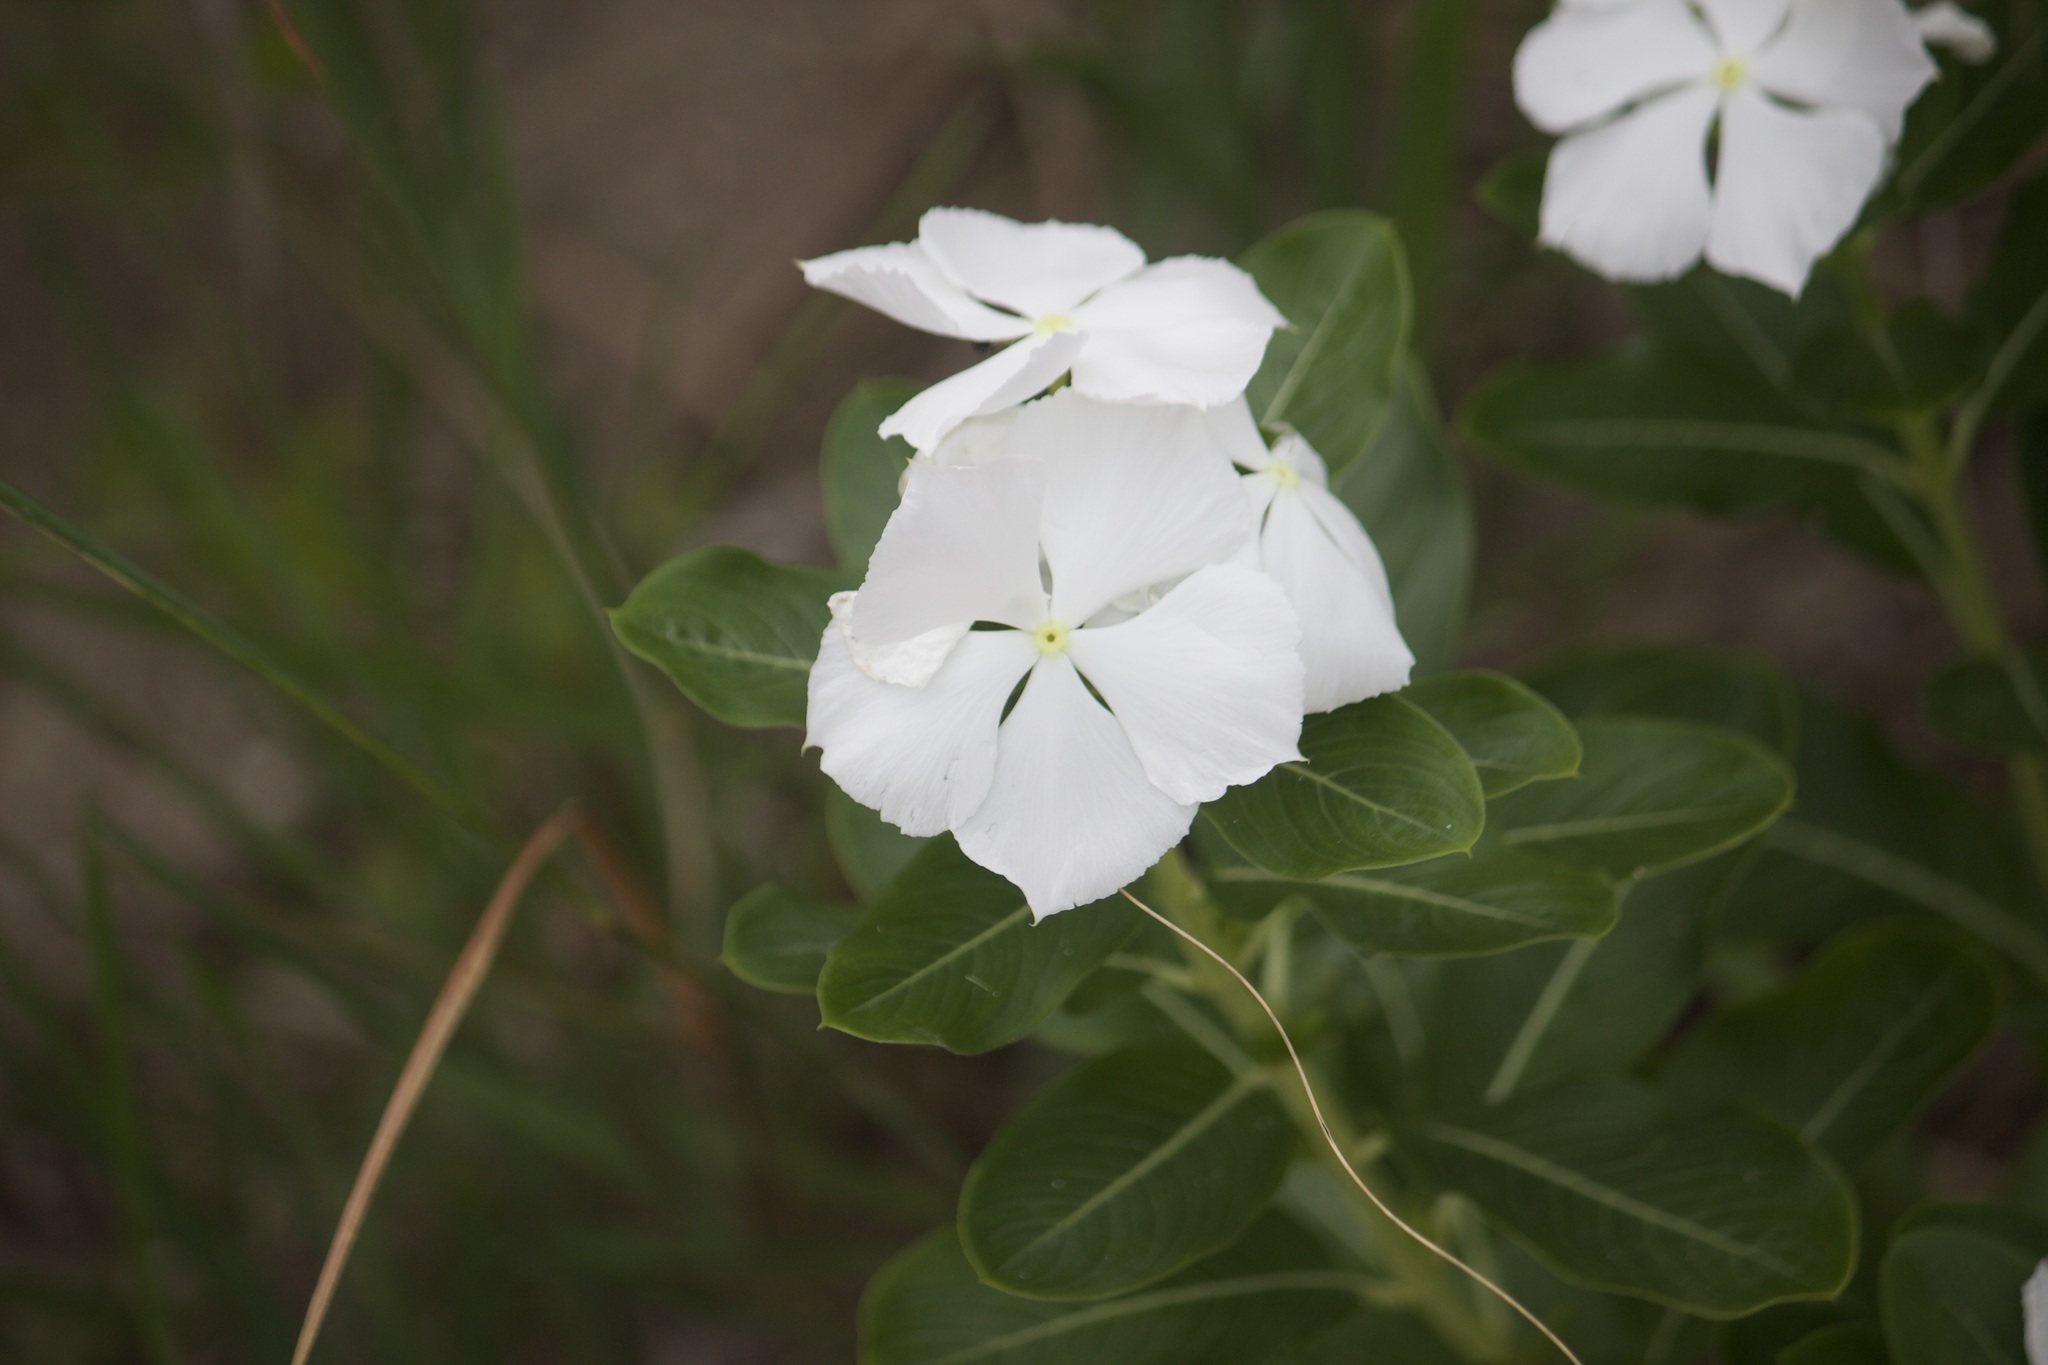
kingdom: Plantae
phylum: Tracheophyta
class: Magnoliopsida
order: Gentianales
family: Apocynaceae
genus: Catharanthus
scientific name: Catharanthus roseus
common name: Madagascar periwinkle
